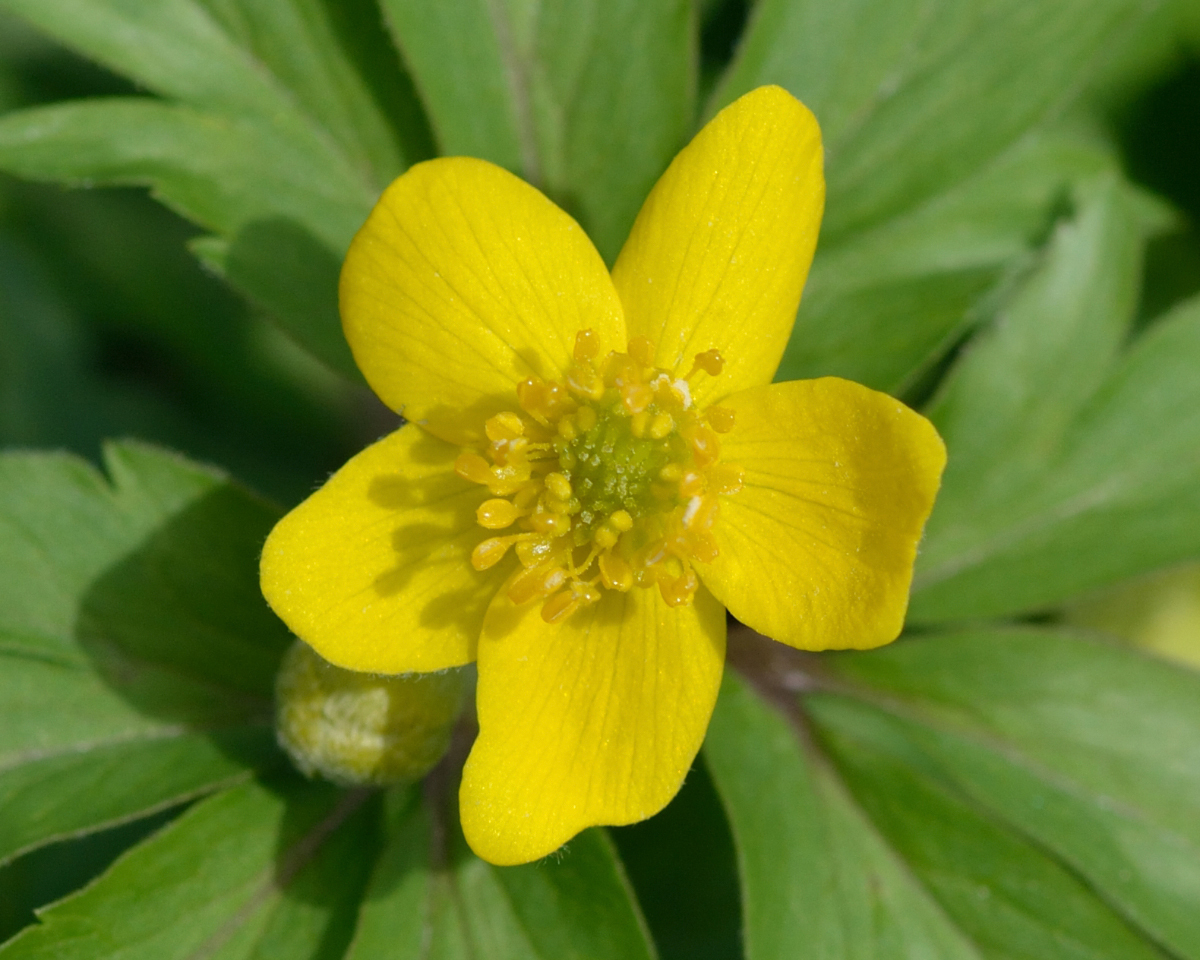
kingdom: Plantae
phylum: Tracheophyta
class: Magnoliopsida
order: Ranunculales
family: Ranunculaceae
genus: Anemone
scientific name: Anemone ranunculoides
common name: Yellow anemone
